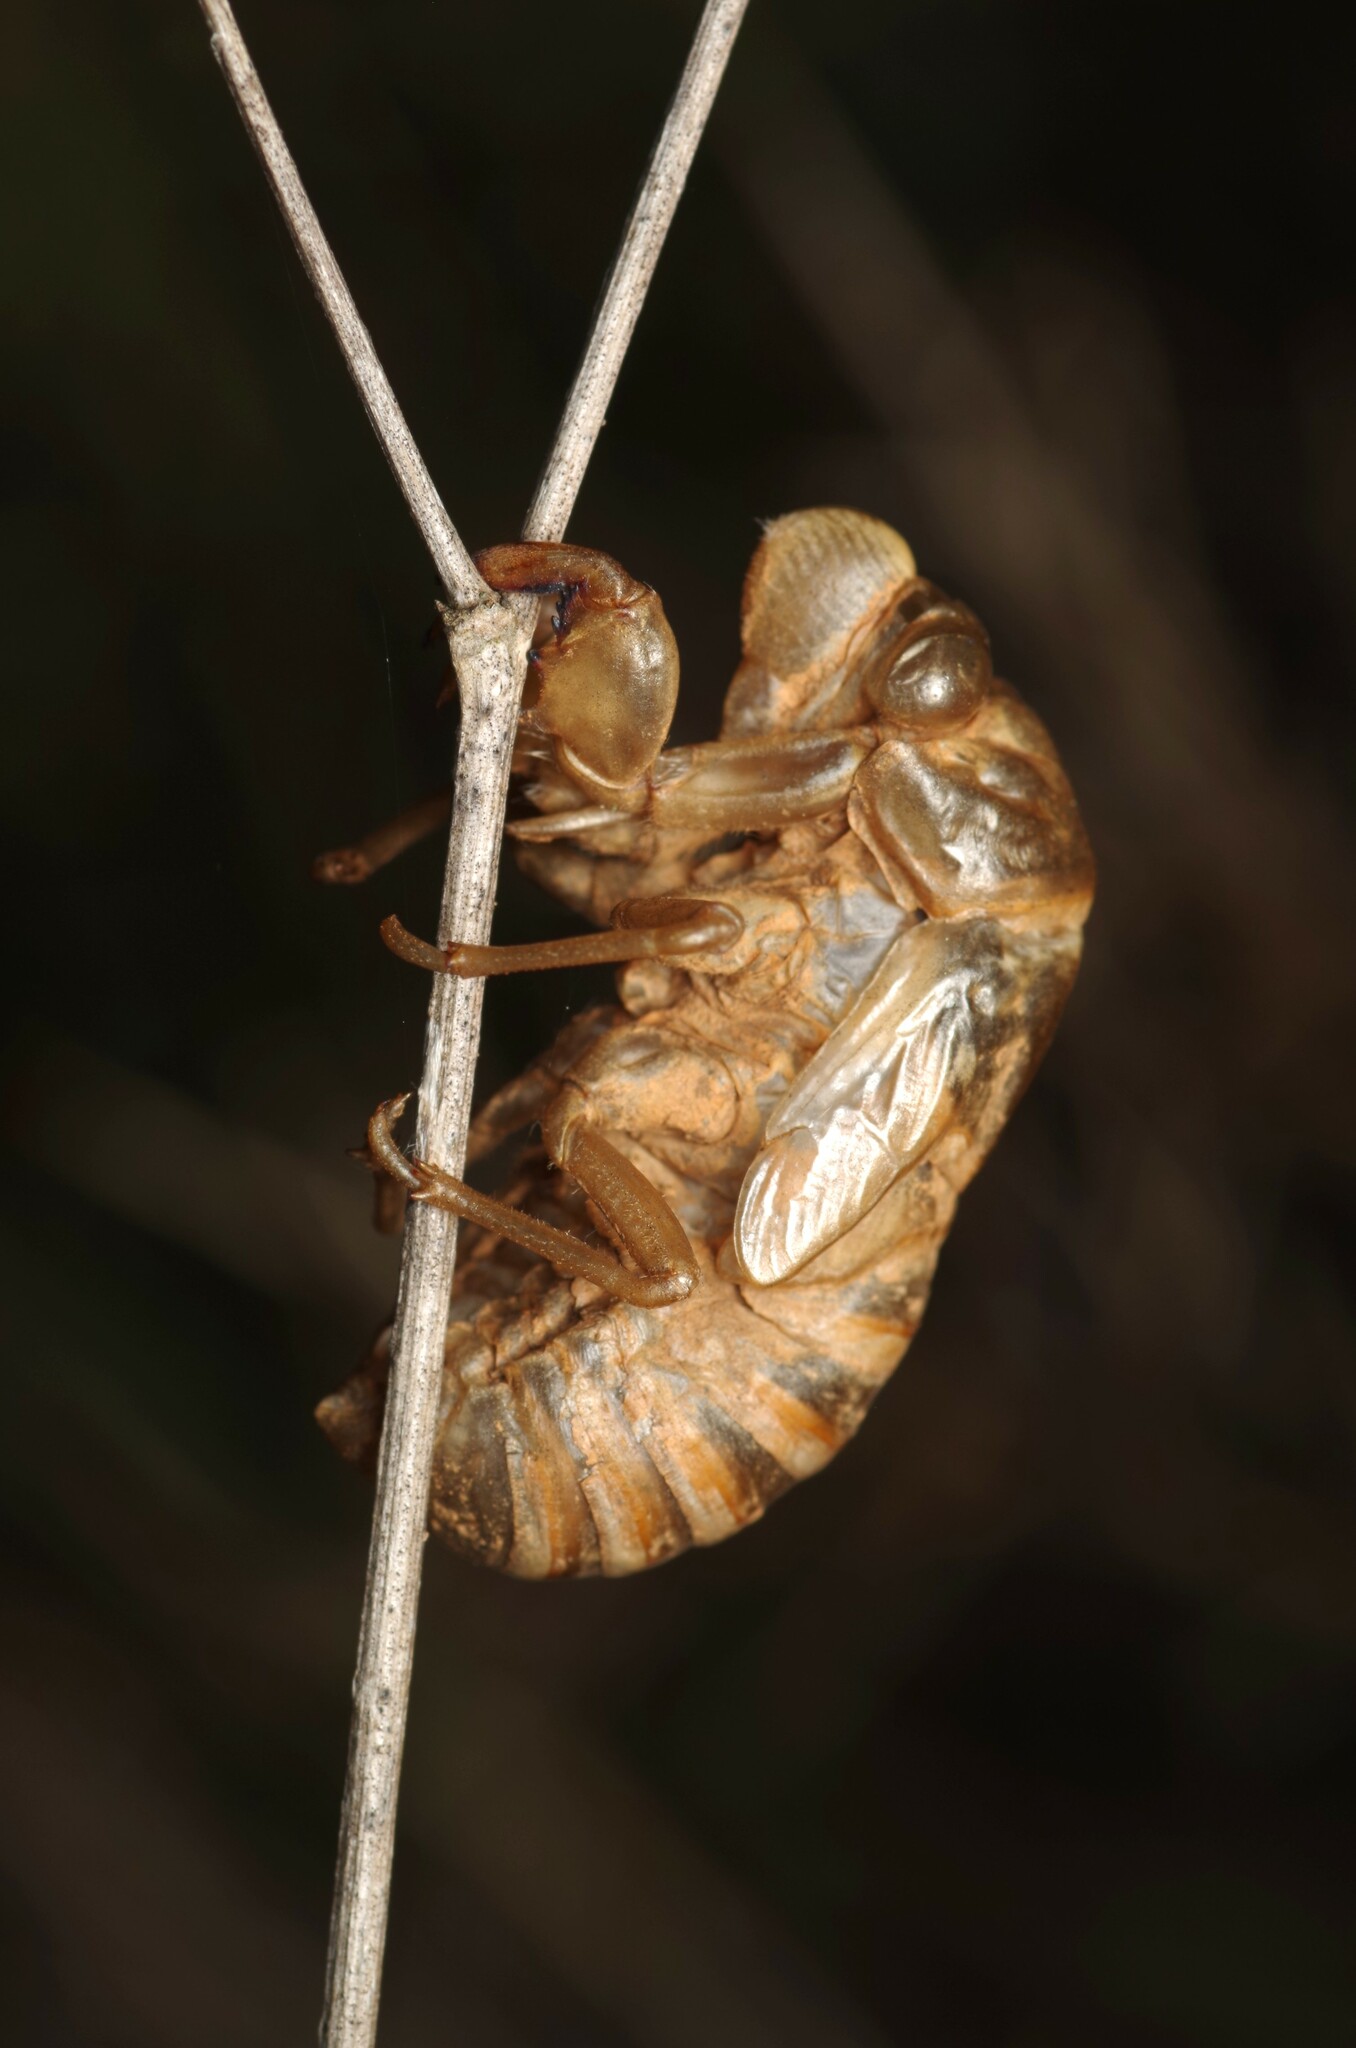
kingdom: Animalia
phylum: Arthropoda
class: Insecta
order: Hemiptera
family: Cicadidae
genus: Lyristes
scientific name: Lyristes plebejus
